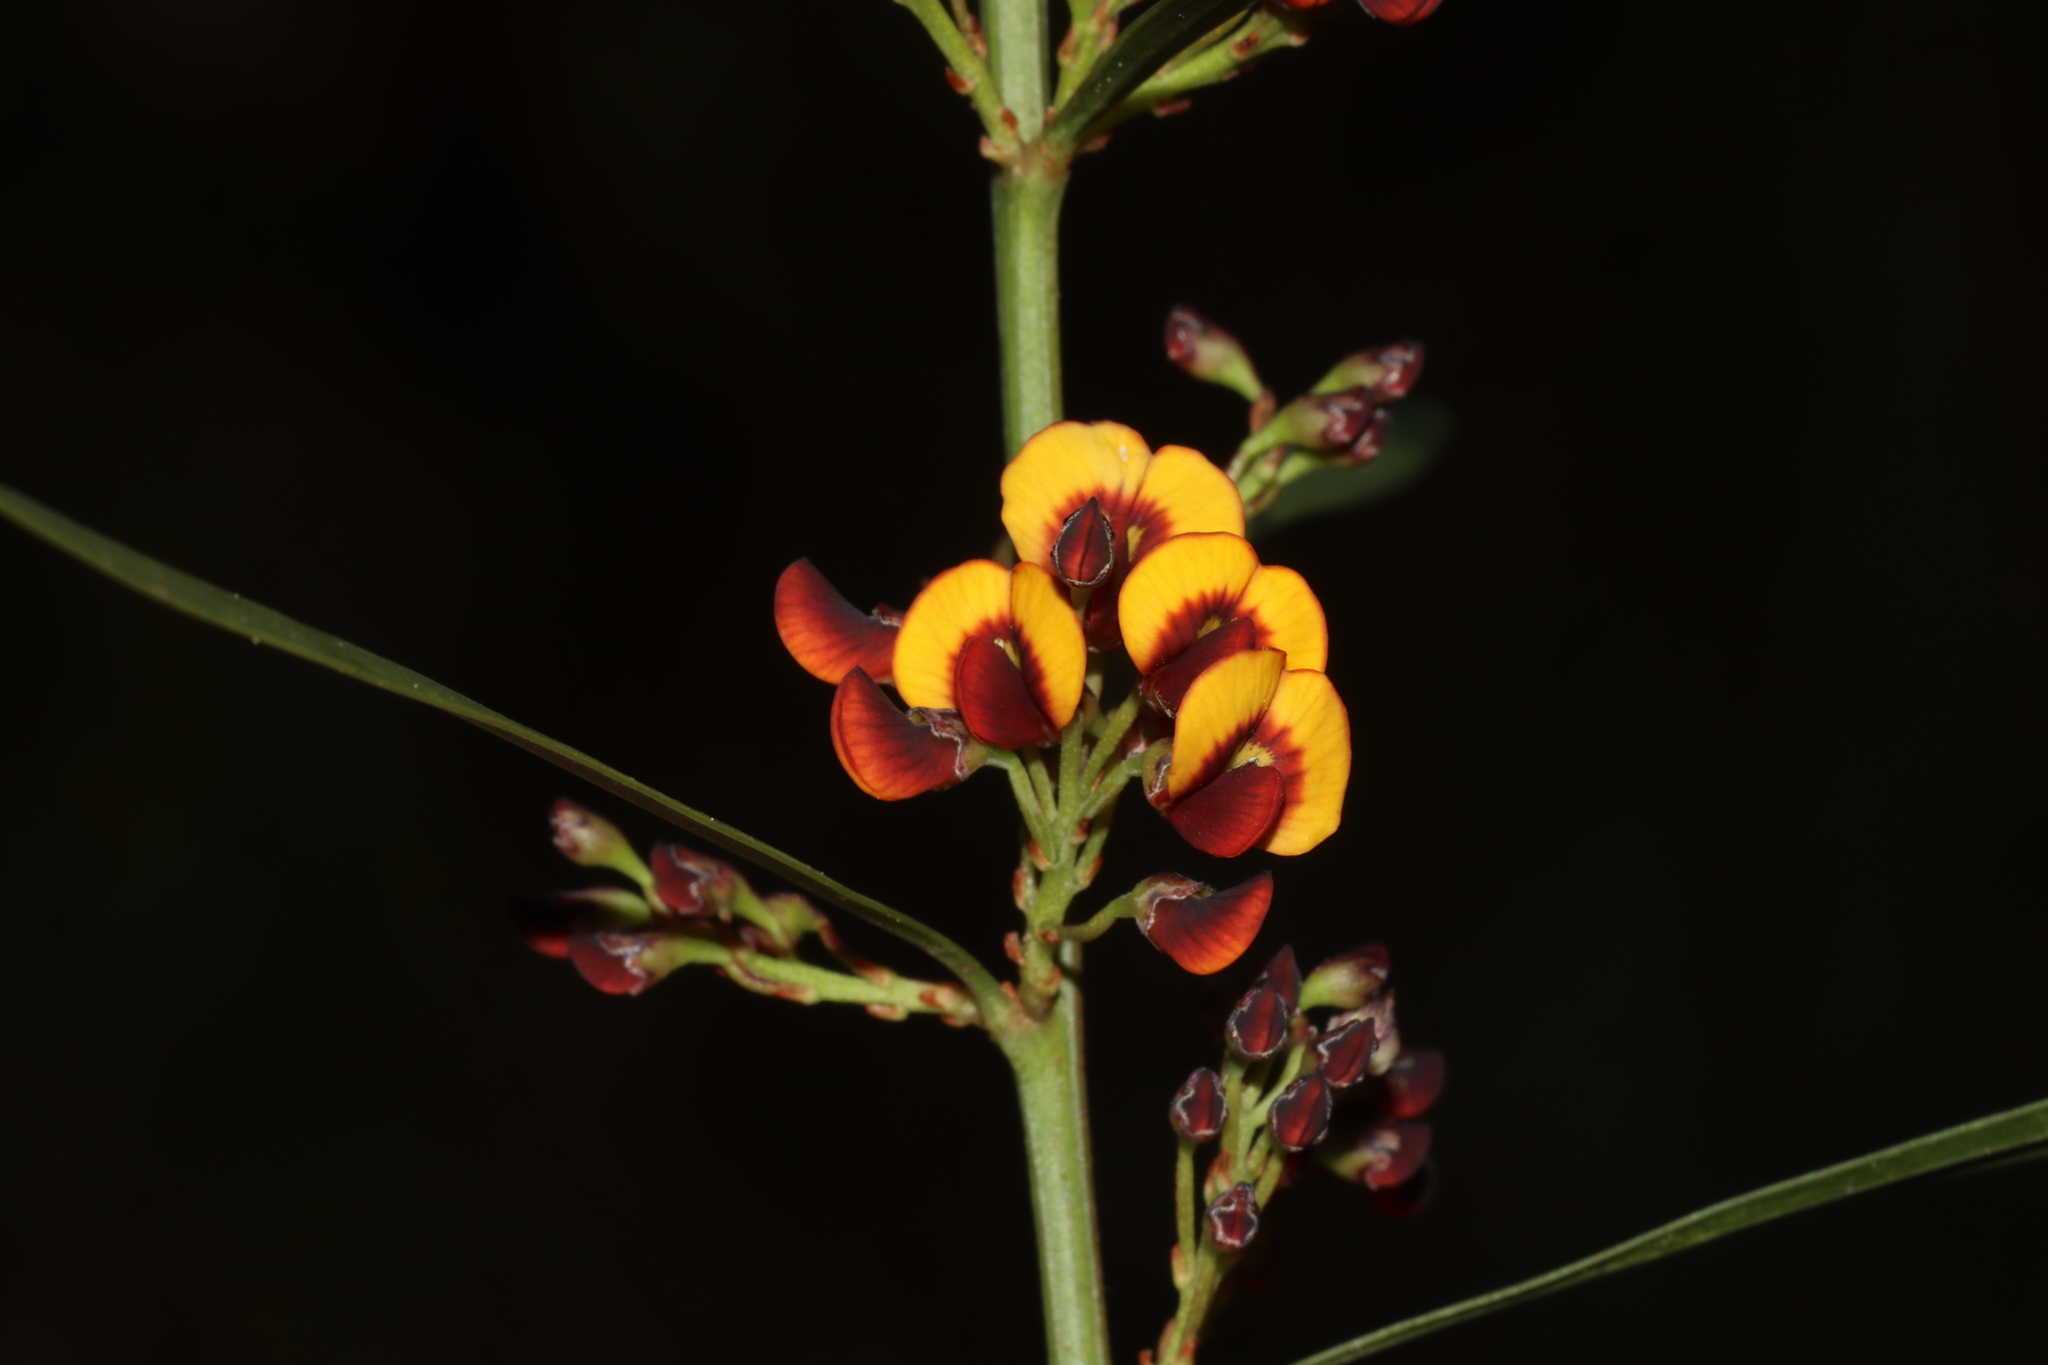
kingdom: Plantae
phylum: Tracheophyta
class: Magnoliopsida
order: Fabales
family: Fabaceae
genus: Daviesia
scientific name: Daviesia leptophylla
